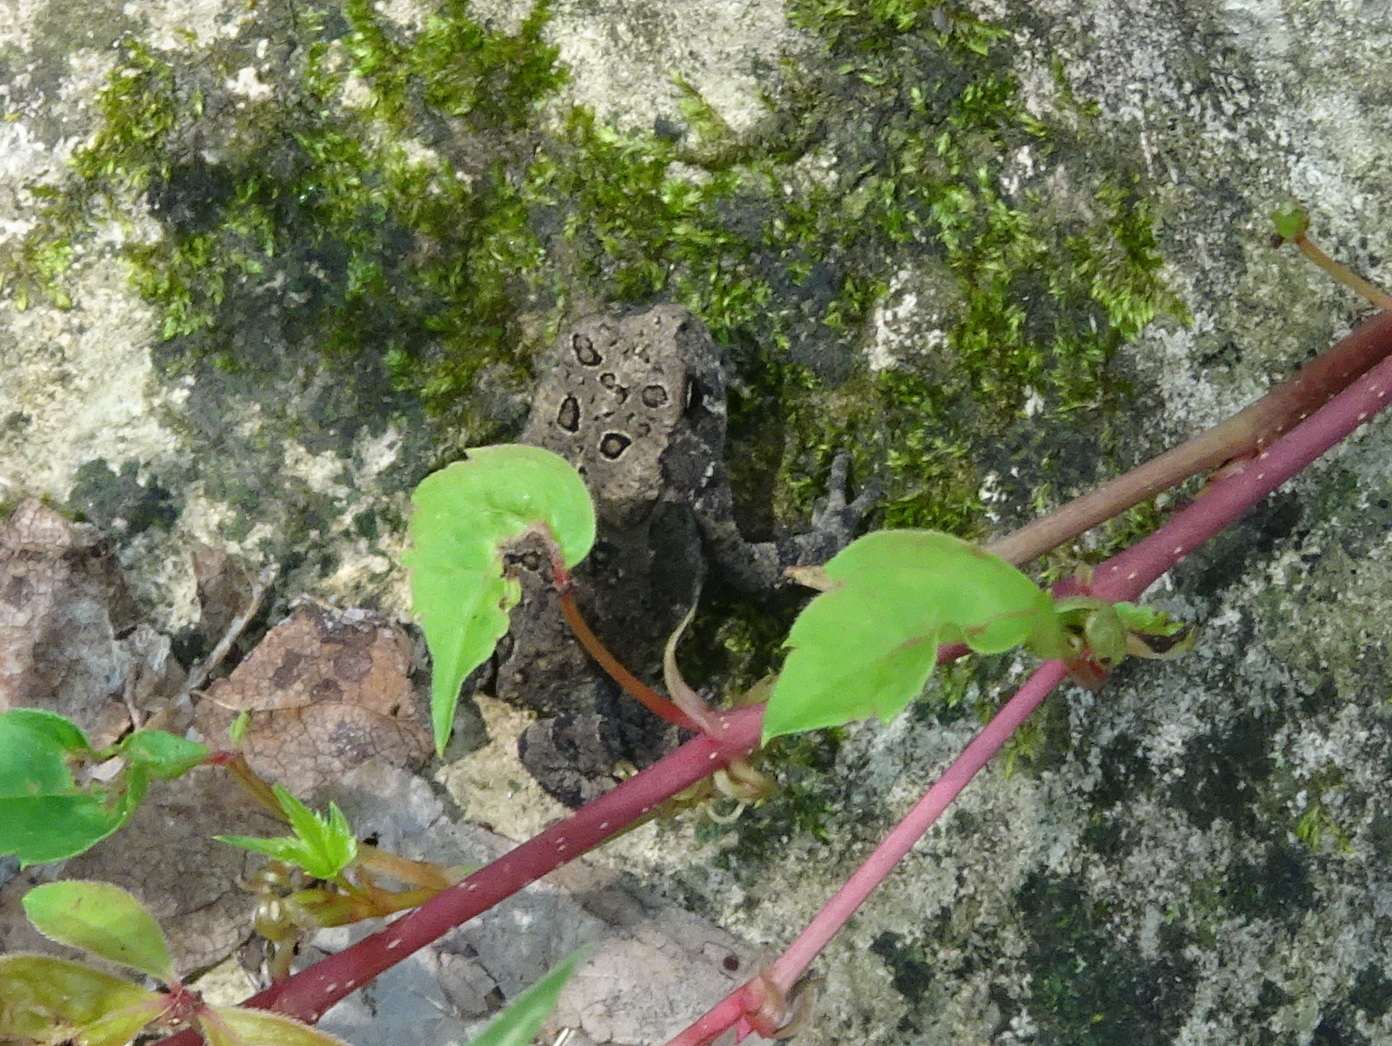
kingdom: Animalia
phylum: Chordata
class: Amphibia
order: Anura
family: Bufonidae
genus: Anaxyrus
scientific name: Anaxyrus woodhousii
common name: Woodhouse's toad
